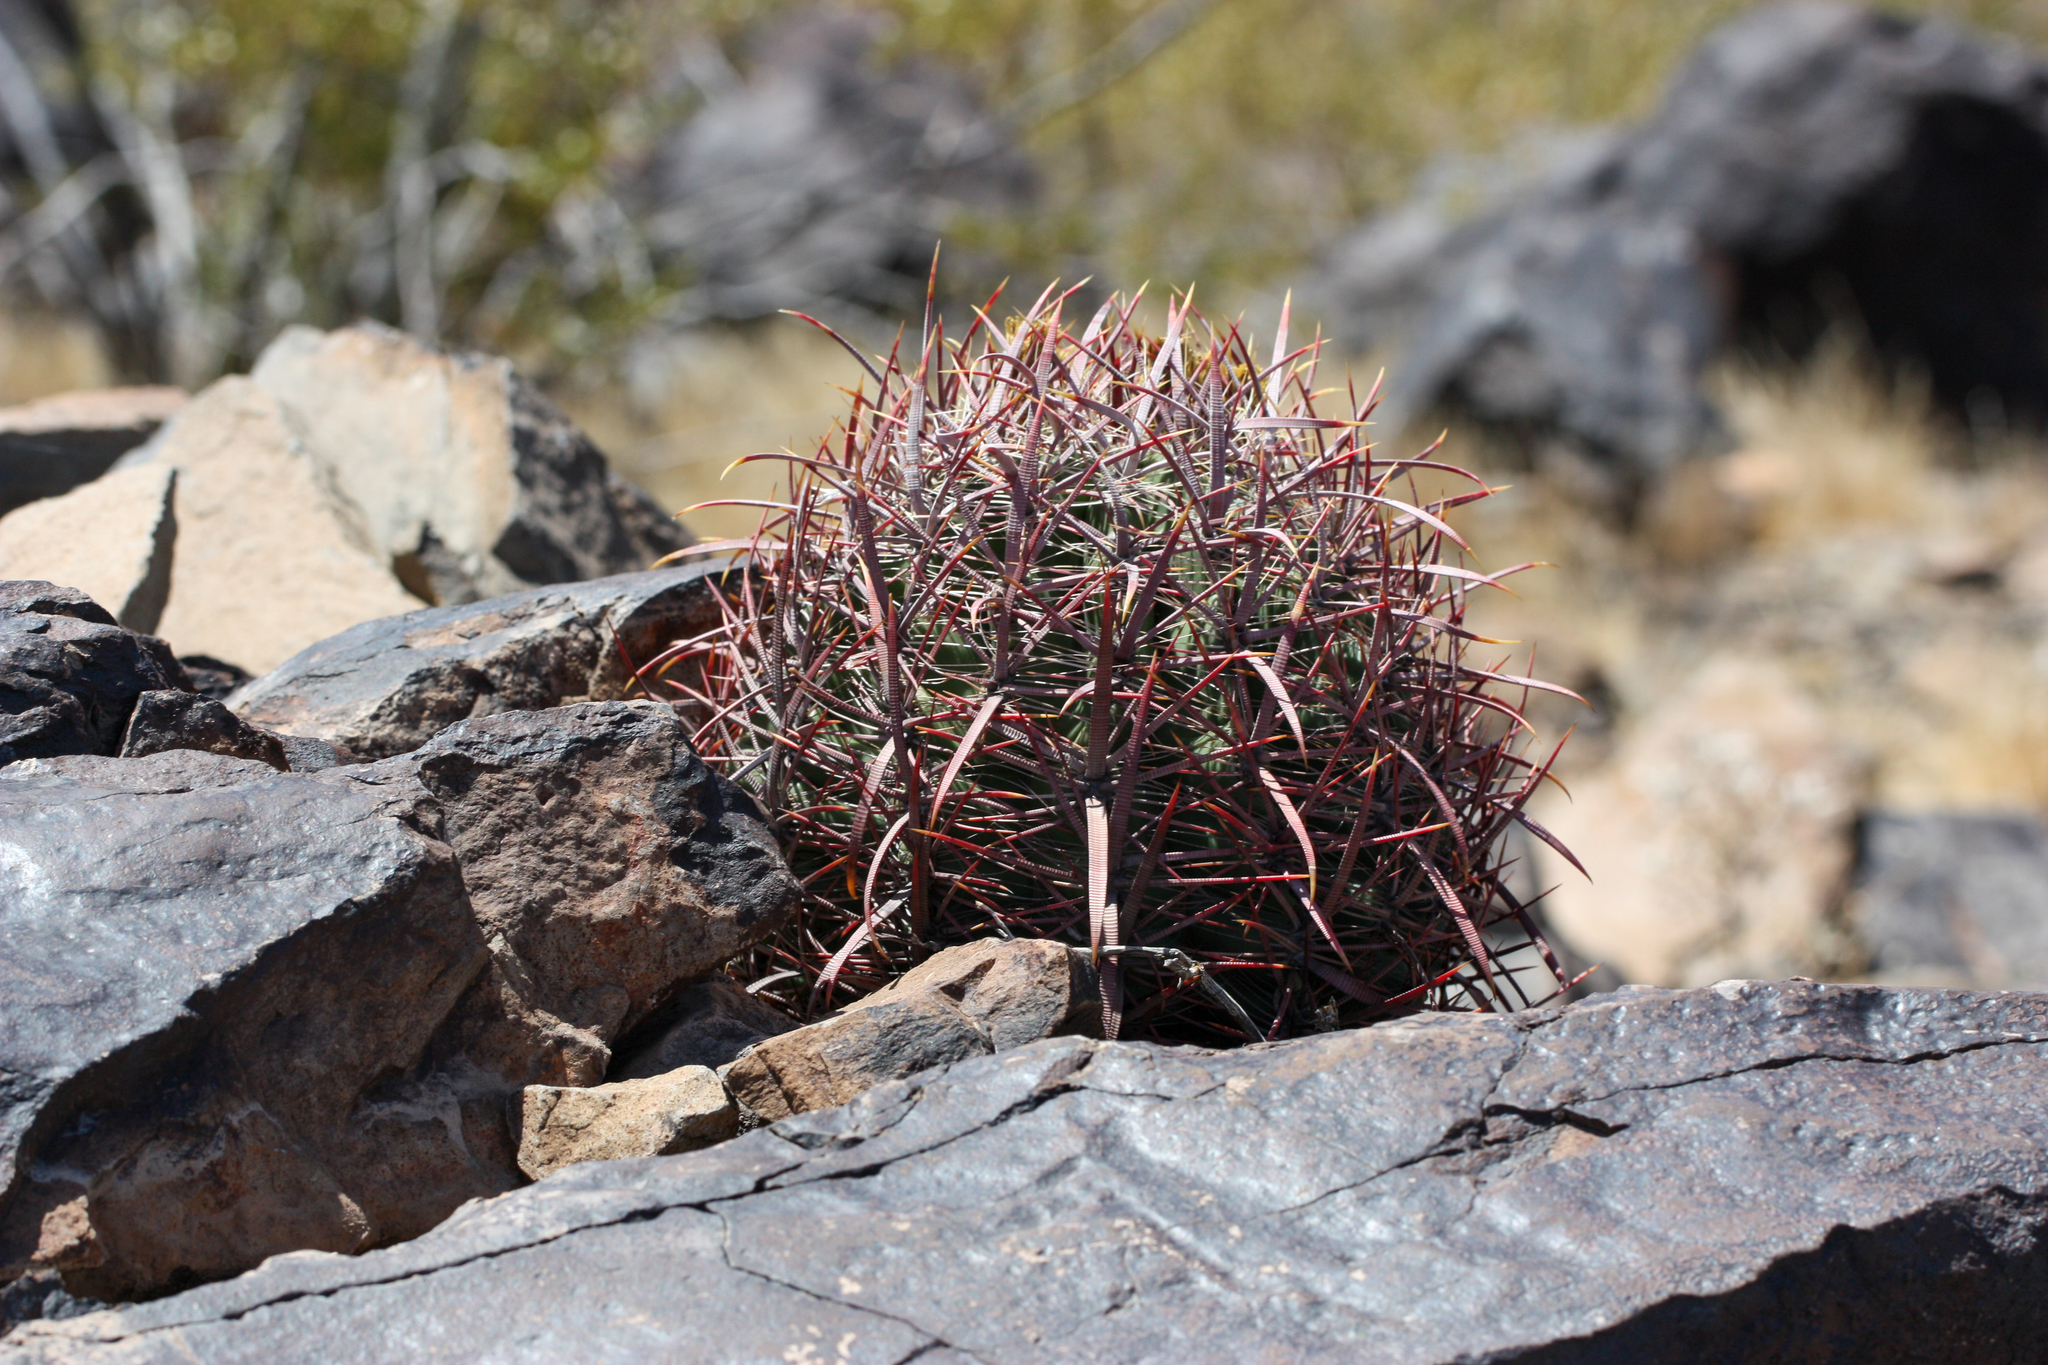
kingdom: Plantae
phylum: Tracheophyta
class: Magnoliopsida
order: Caryophyllales
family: Cactaceae
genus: Ferocactus
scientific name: Ferocactus cylindraceus
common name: California barrel cactus
